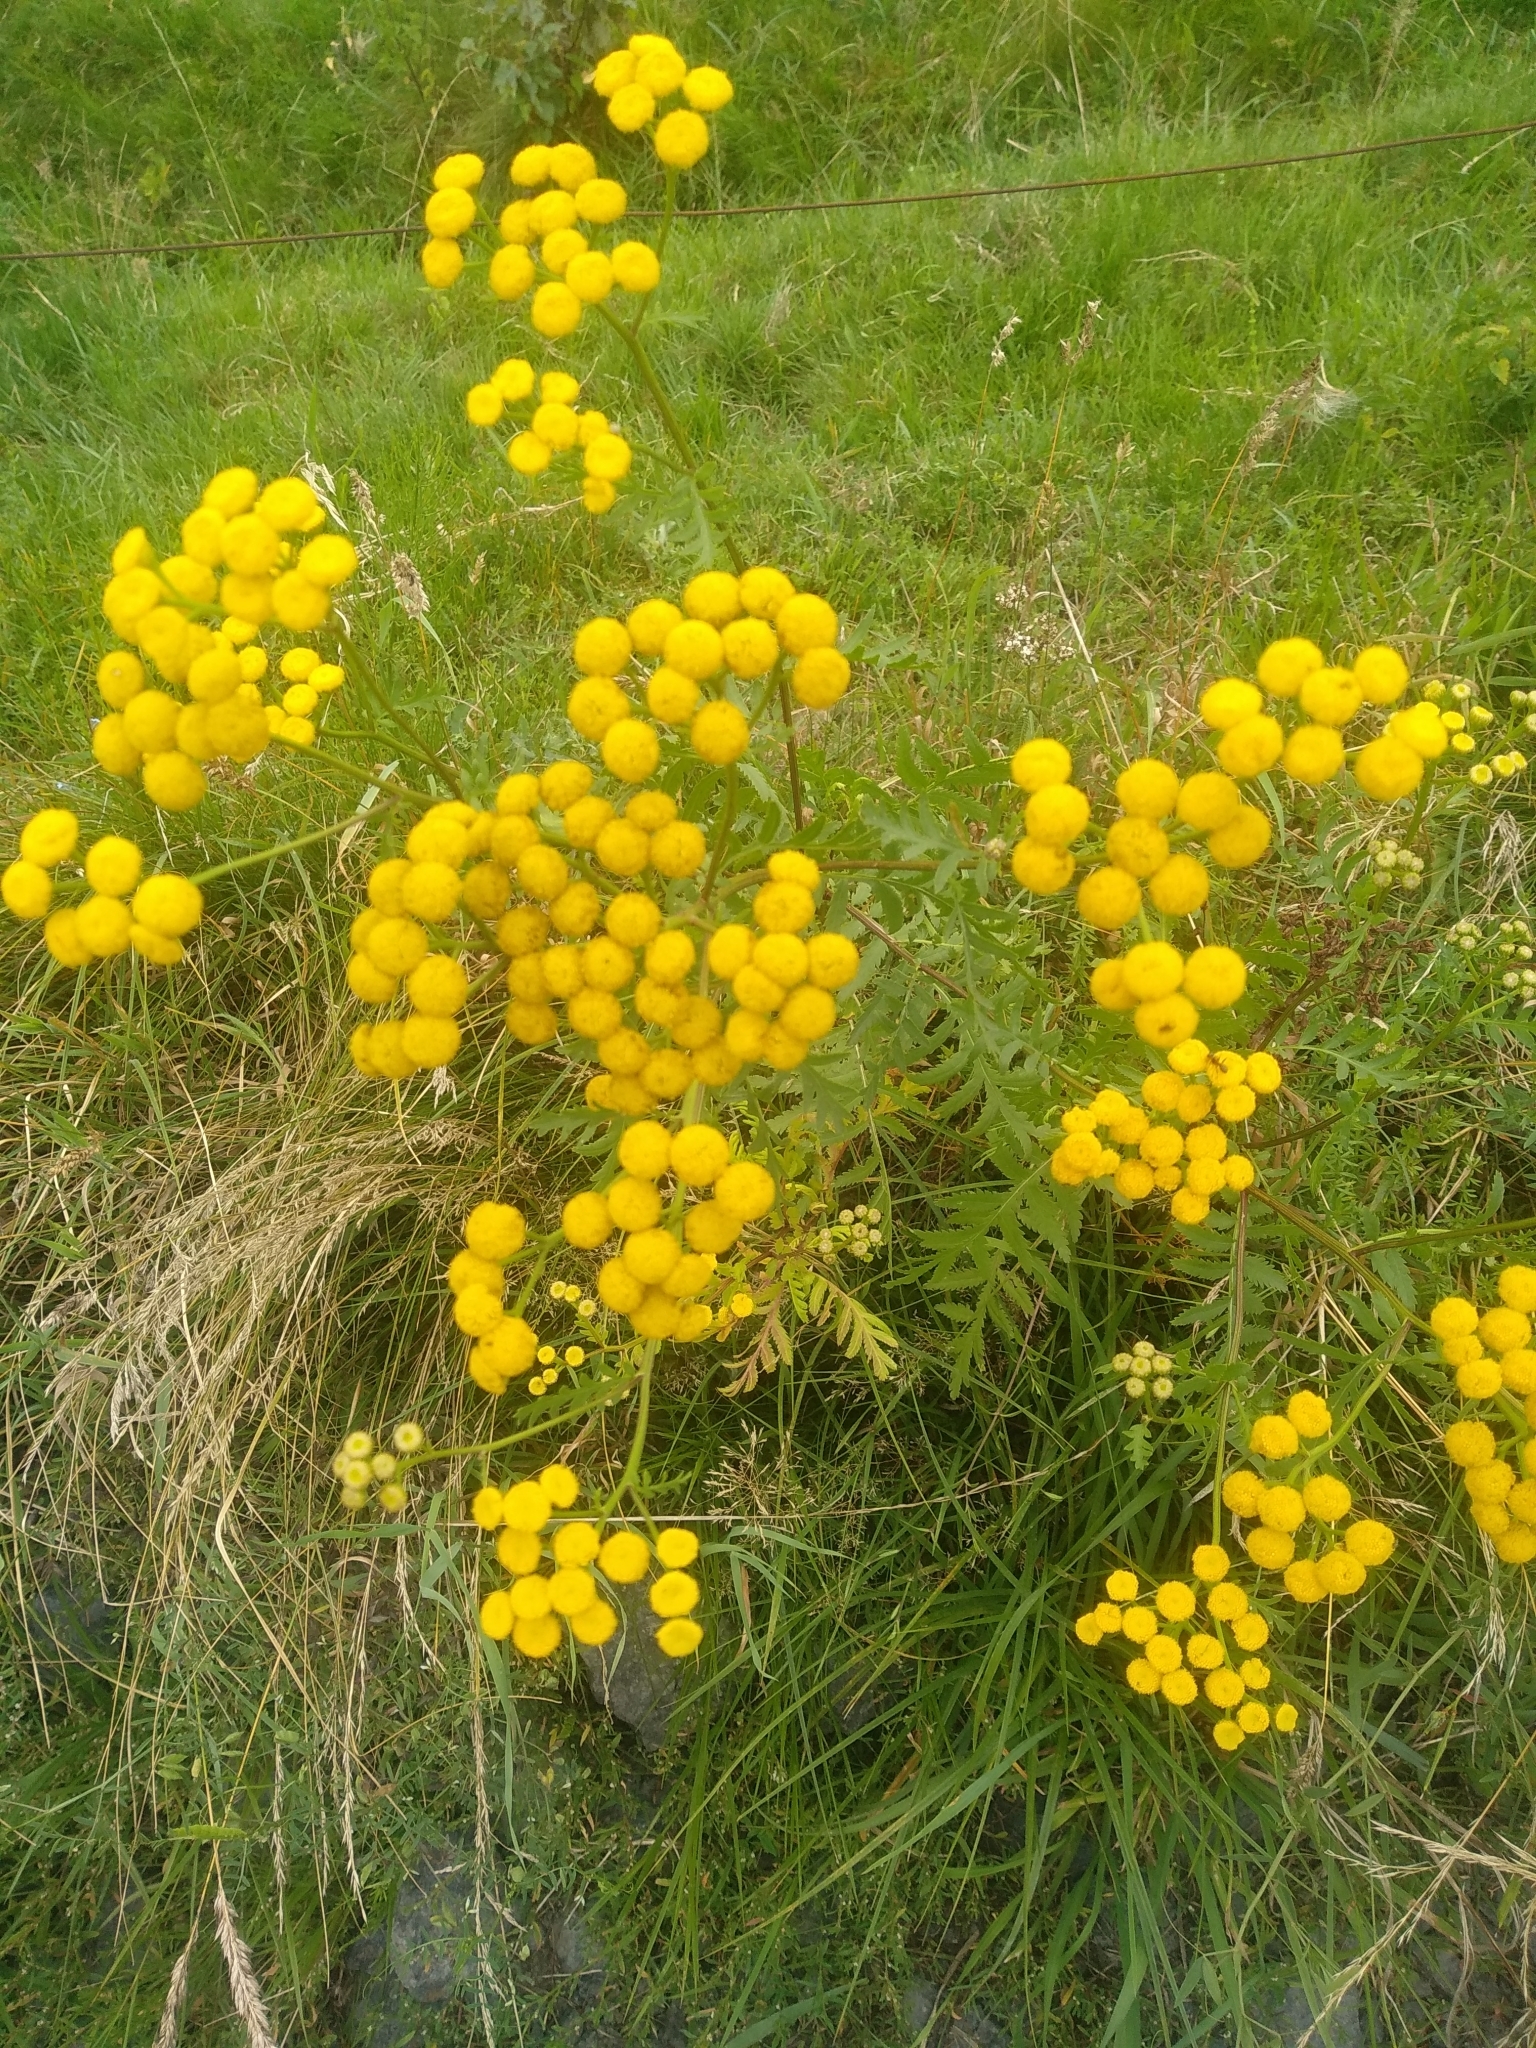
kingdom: Plantae
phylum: Tracheophyta
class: Magnoliopsida
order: Asterales
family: Asteraceae
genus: Tanacetum
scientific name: Tanacetum vulgare
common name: Common tansy
